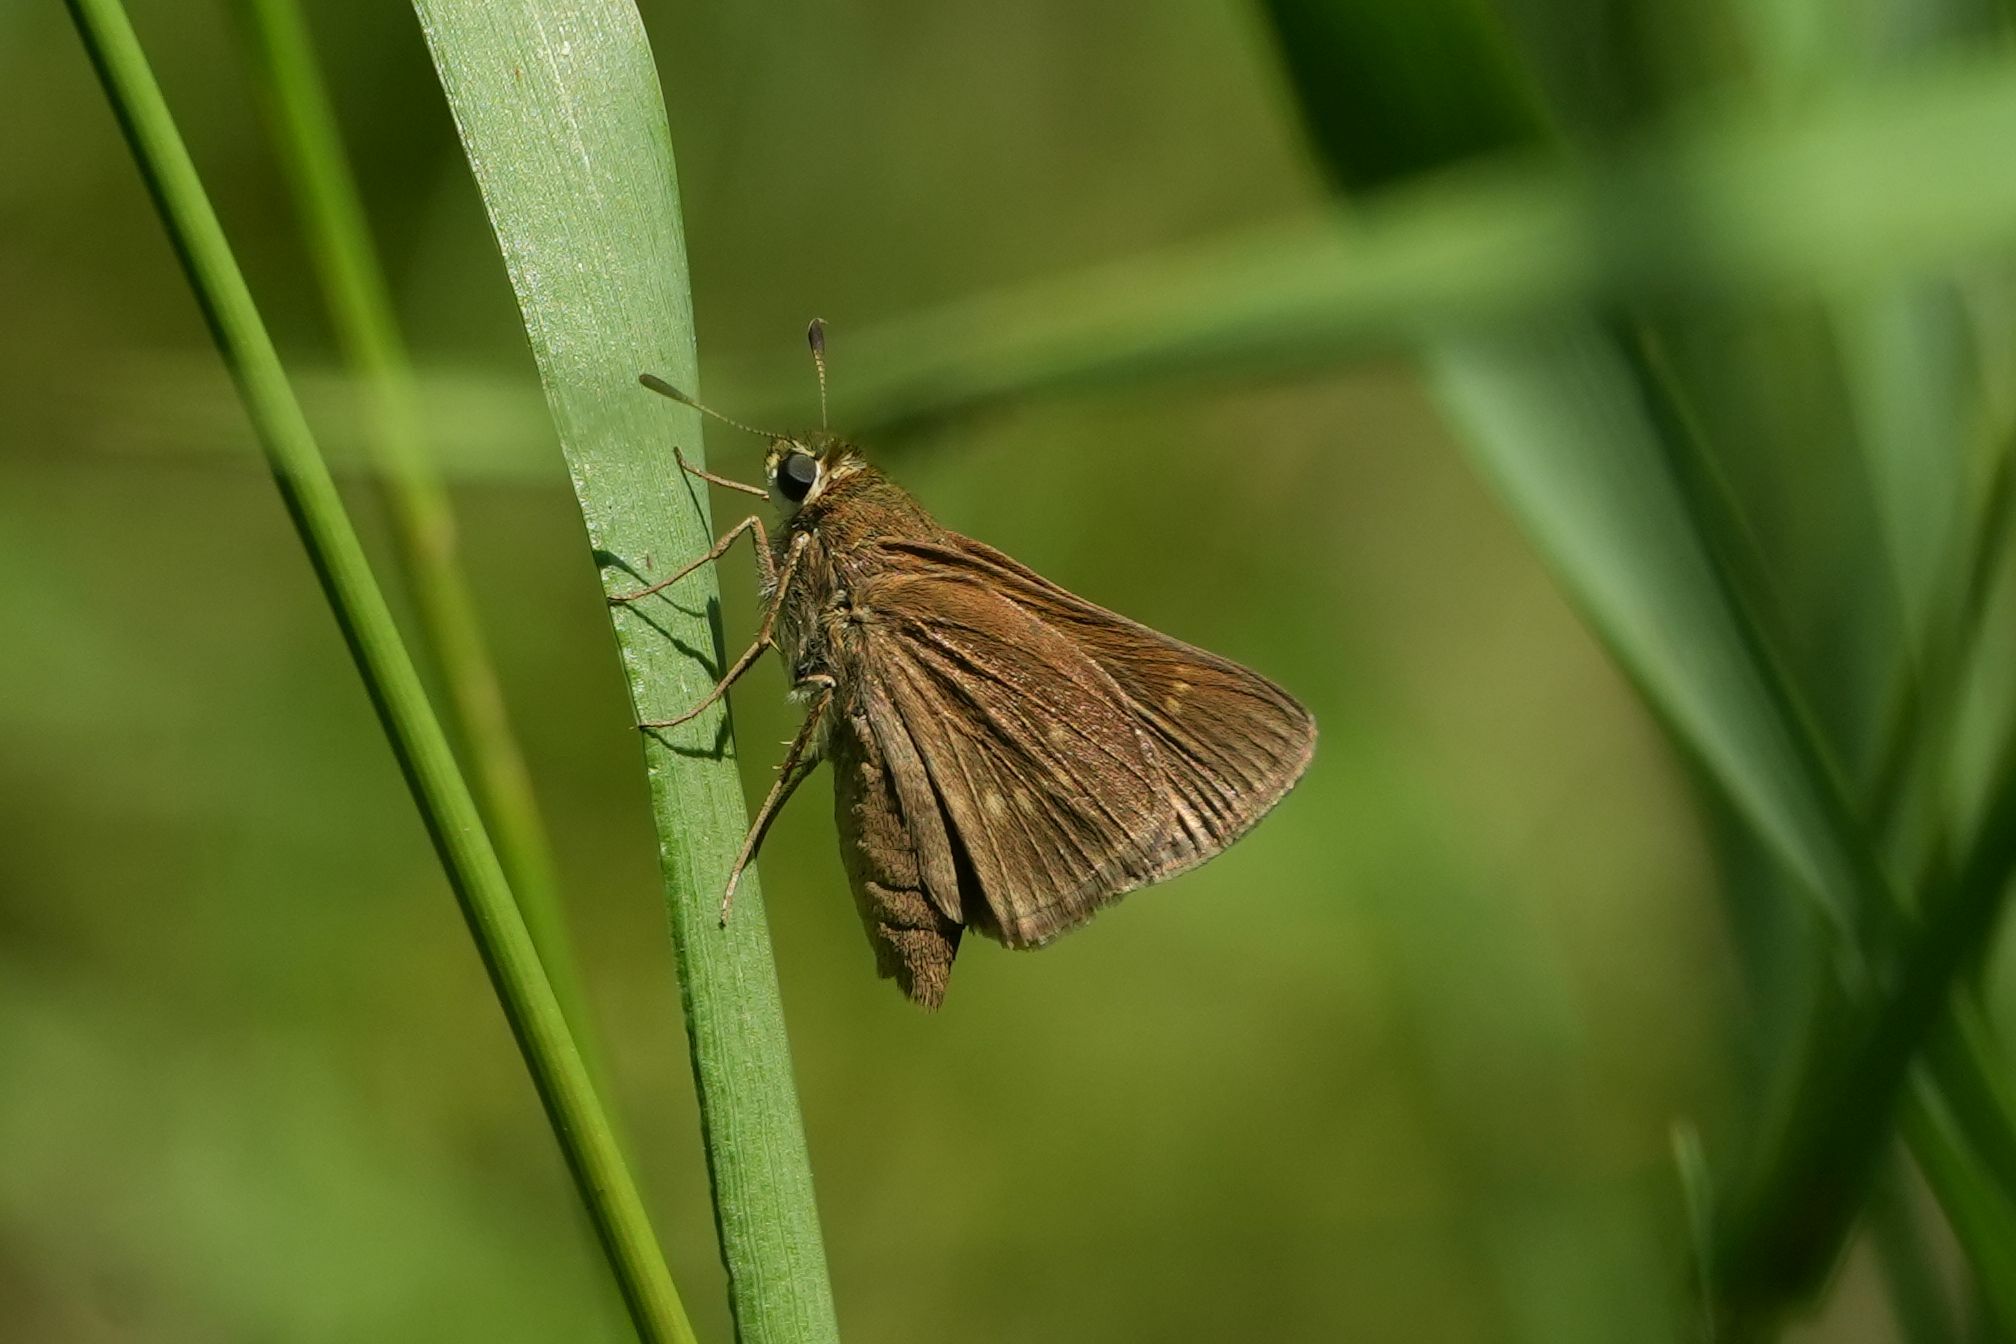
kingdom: Animalia
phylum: Arthropoda
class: Insecta
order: Lepidoptera
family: Hesperiidae
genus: Polites
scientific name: Polites origenes
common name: Crossline skipper
